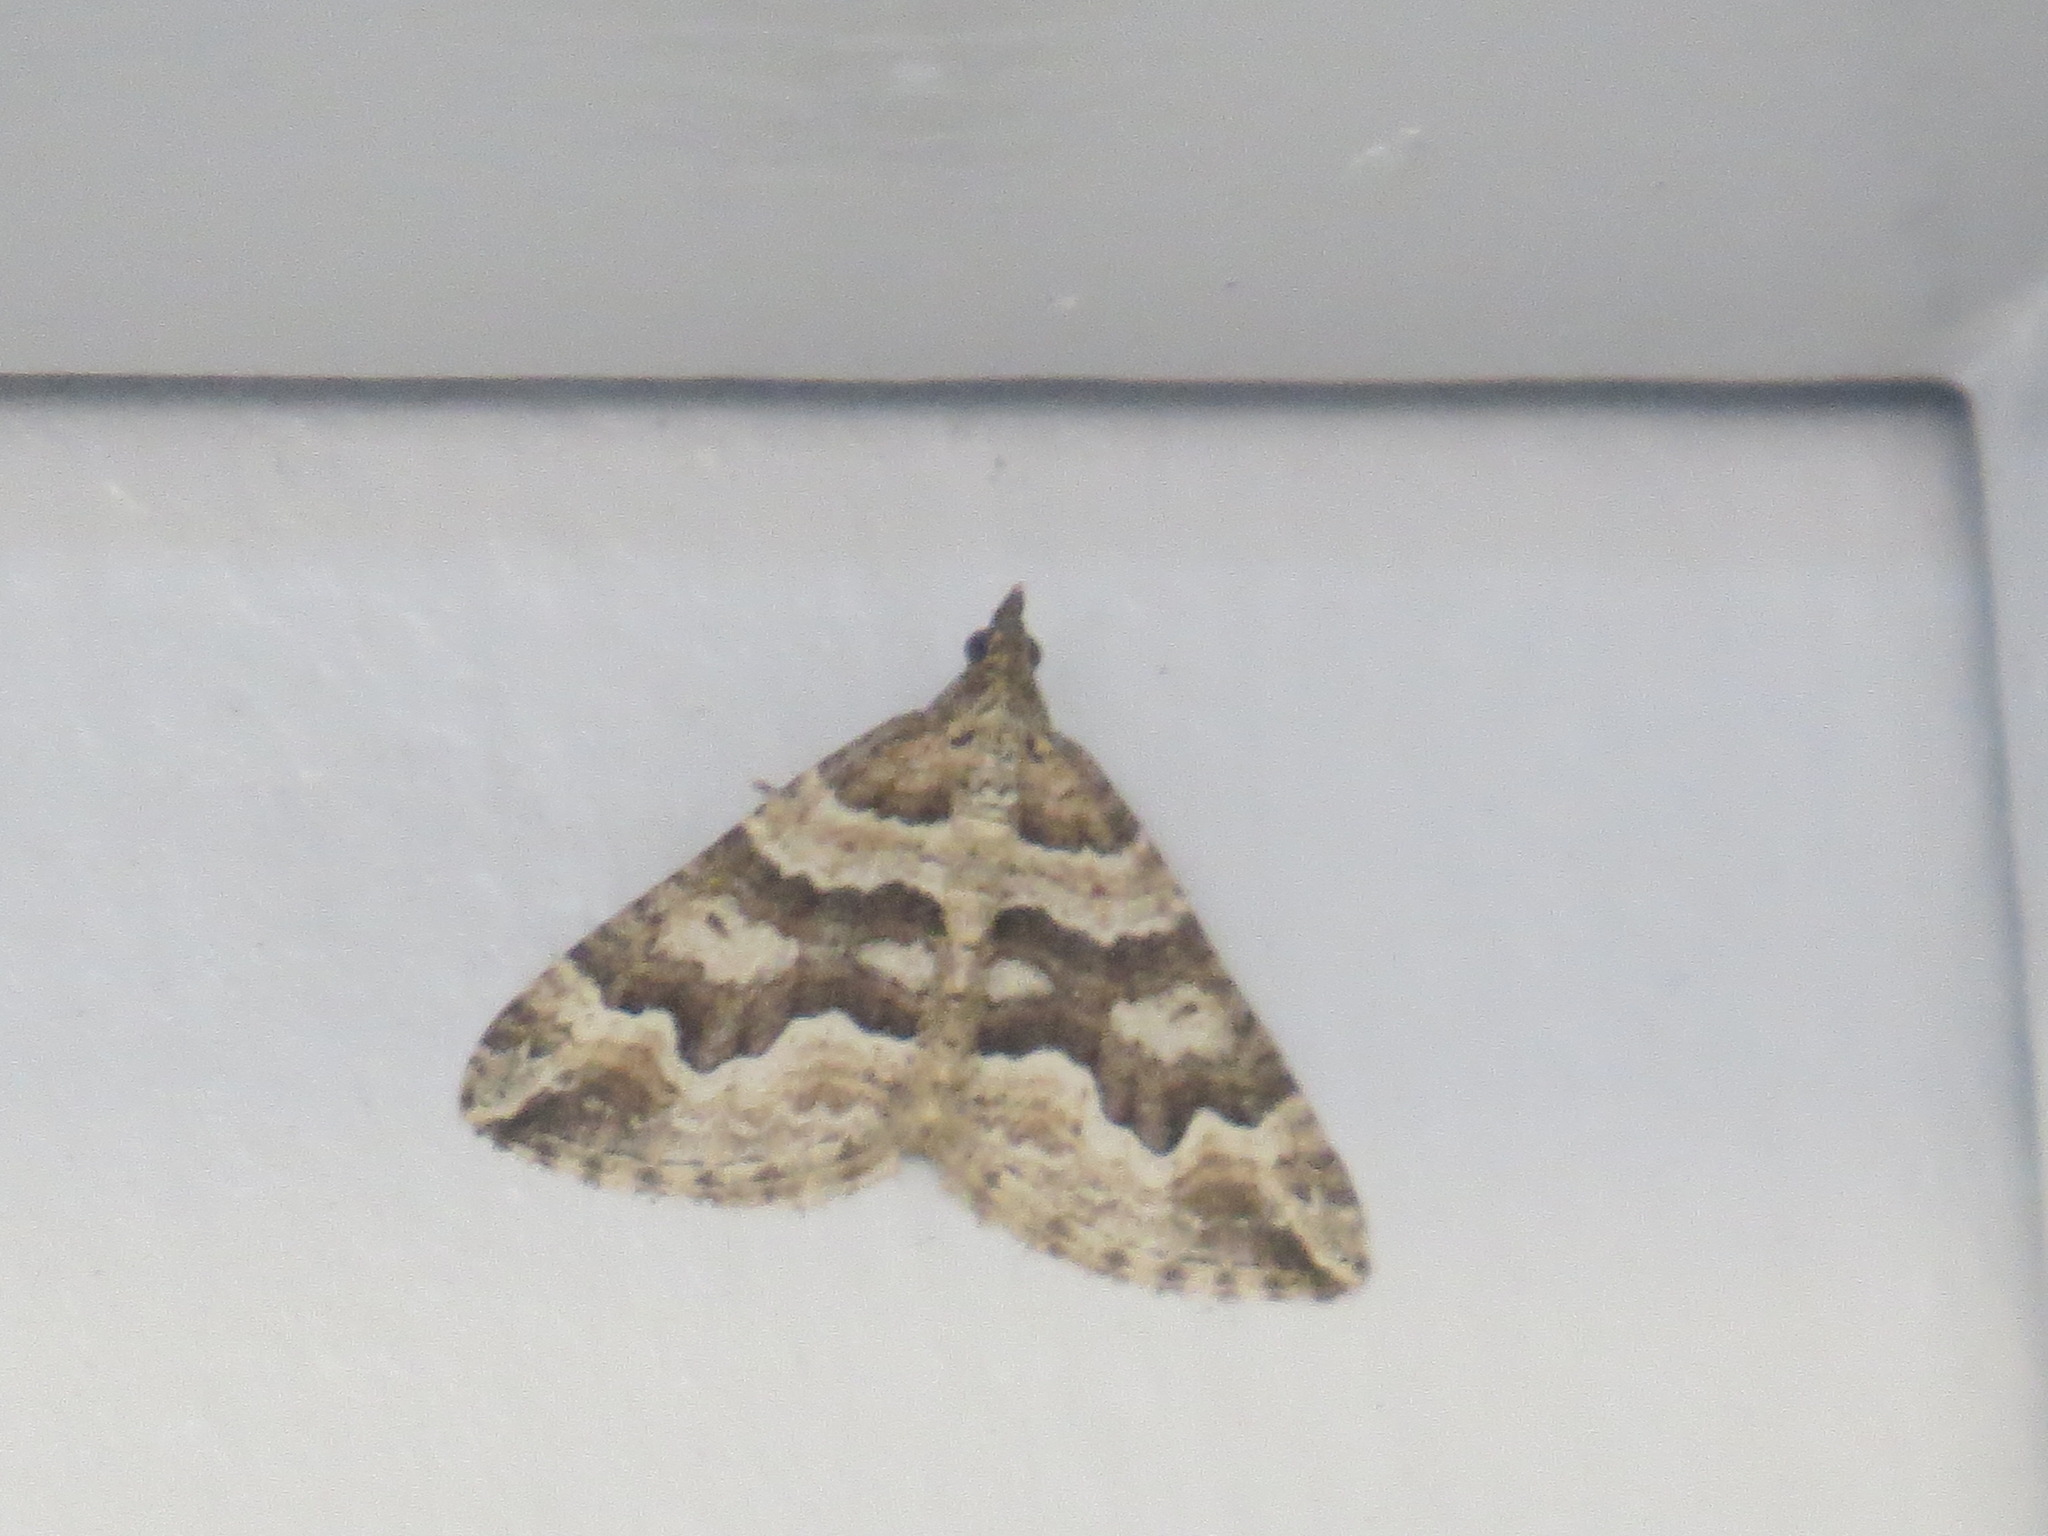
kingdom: Animalia
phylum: Arthropoda
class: Insecta
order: Lepidoptera
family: Geometridae
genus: Perizoma
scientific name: Perizoma epictata
